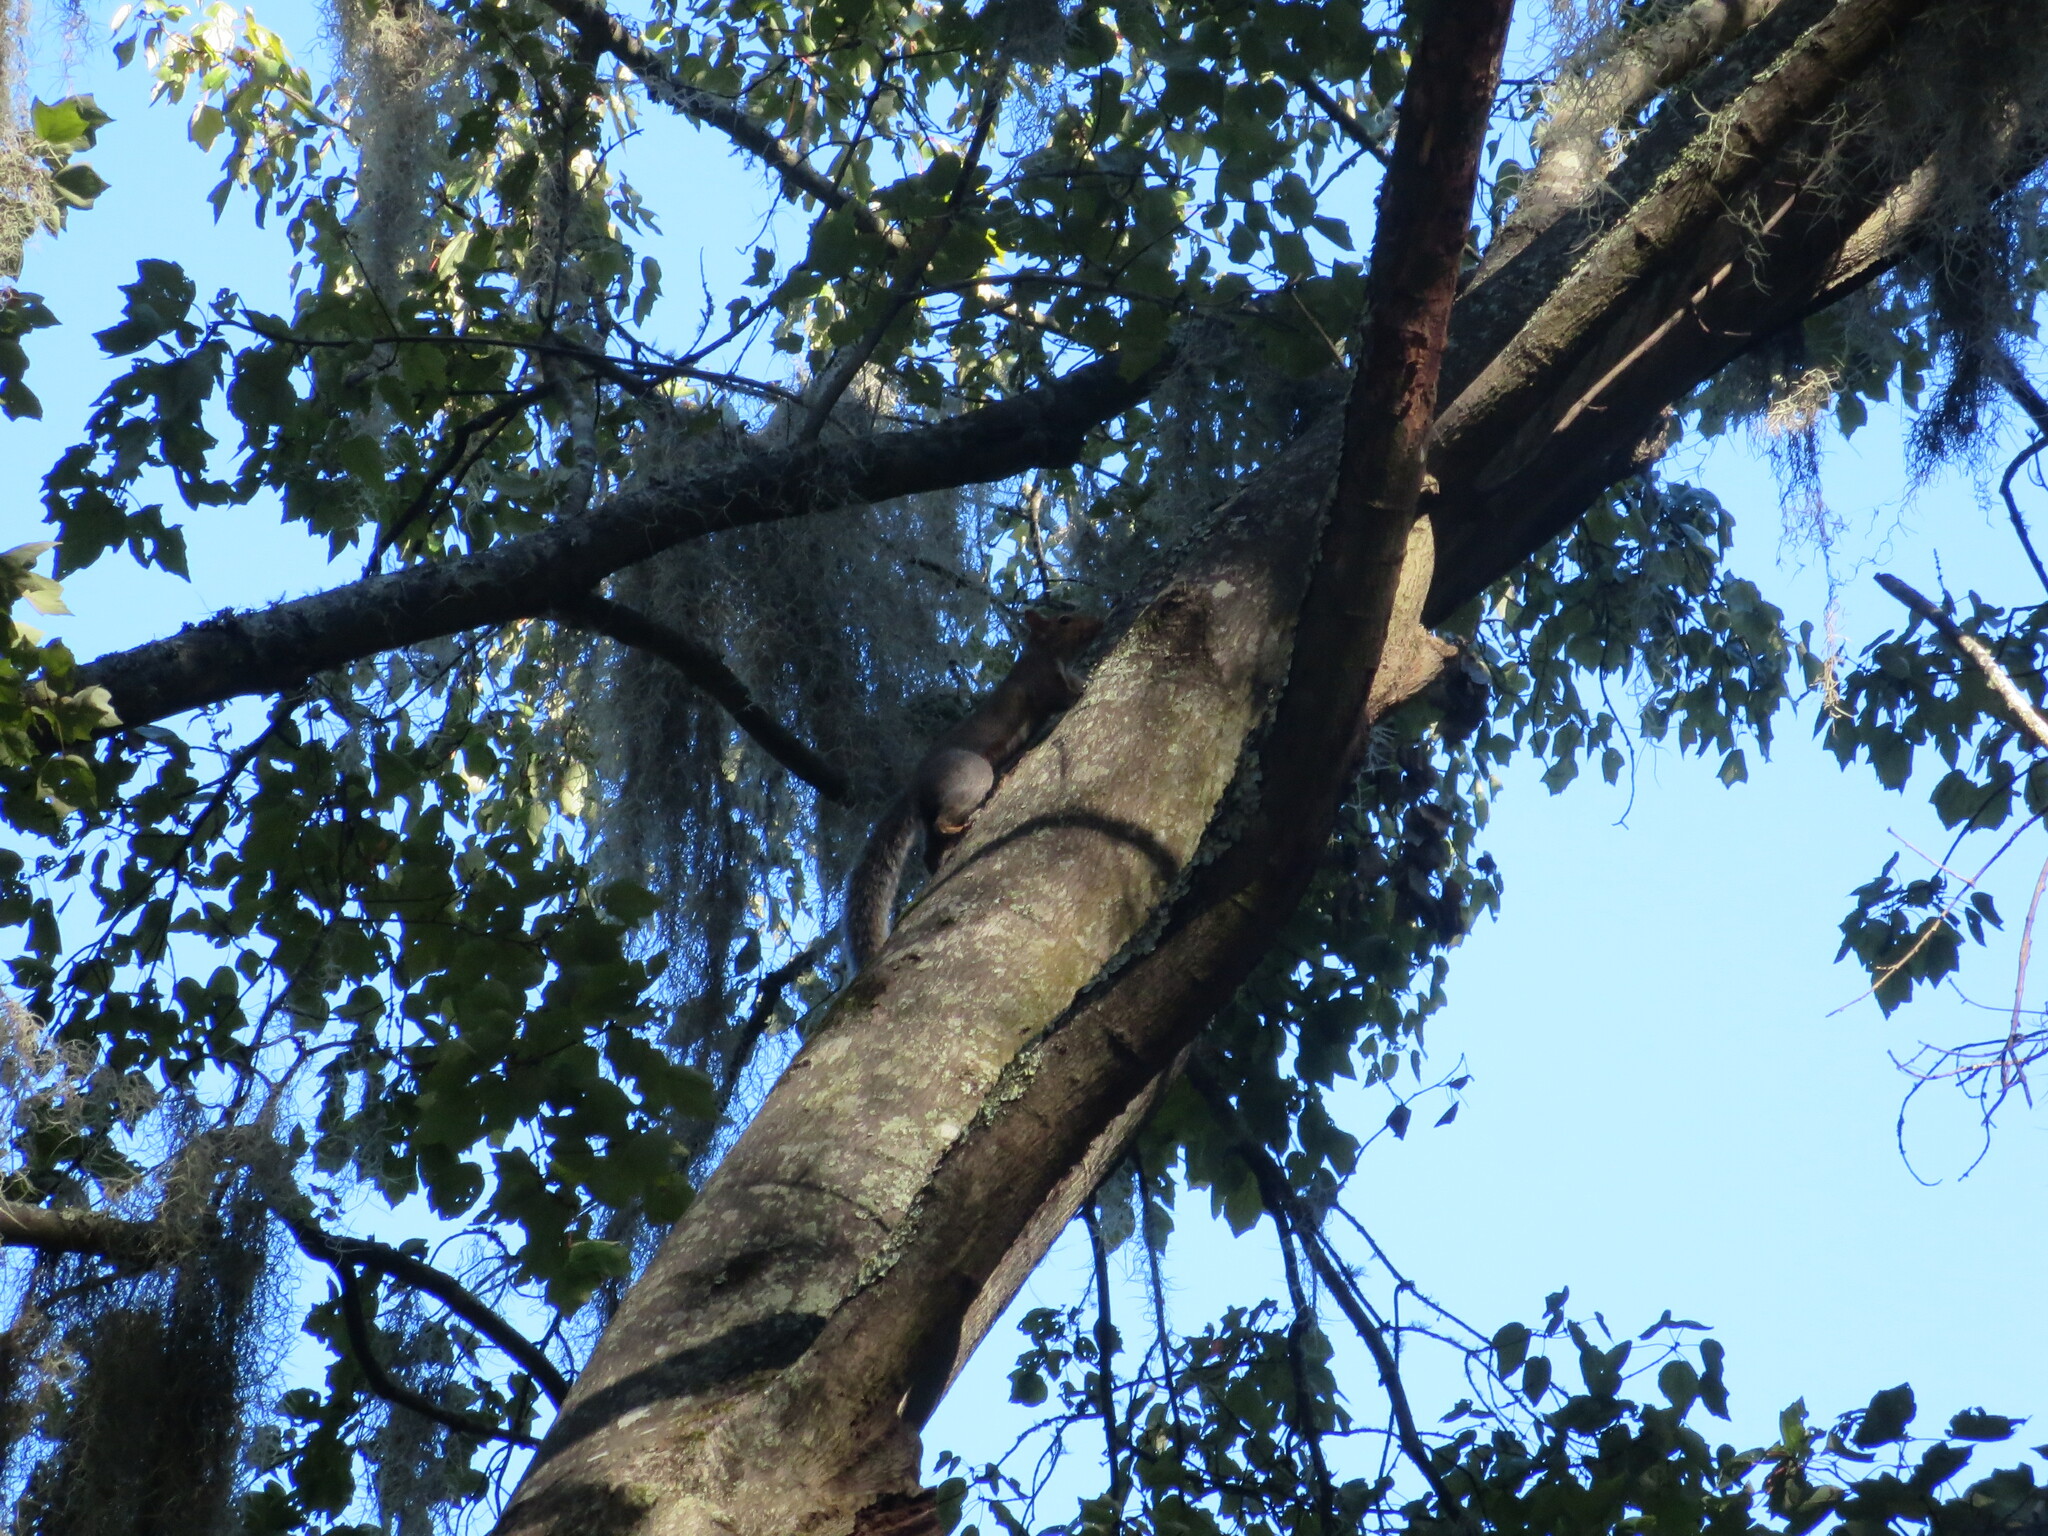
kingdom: Animalia
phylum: Chordata
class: Mammalia
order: Rodentia
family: Sciuridae
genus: Sciurus
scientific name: Sciurus carolinensis
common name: Eastern gray squirrel
